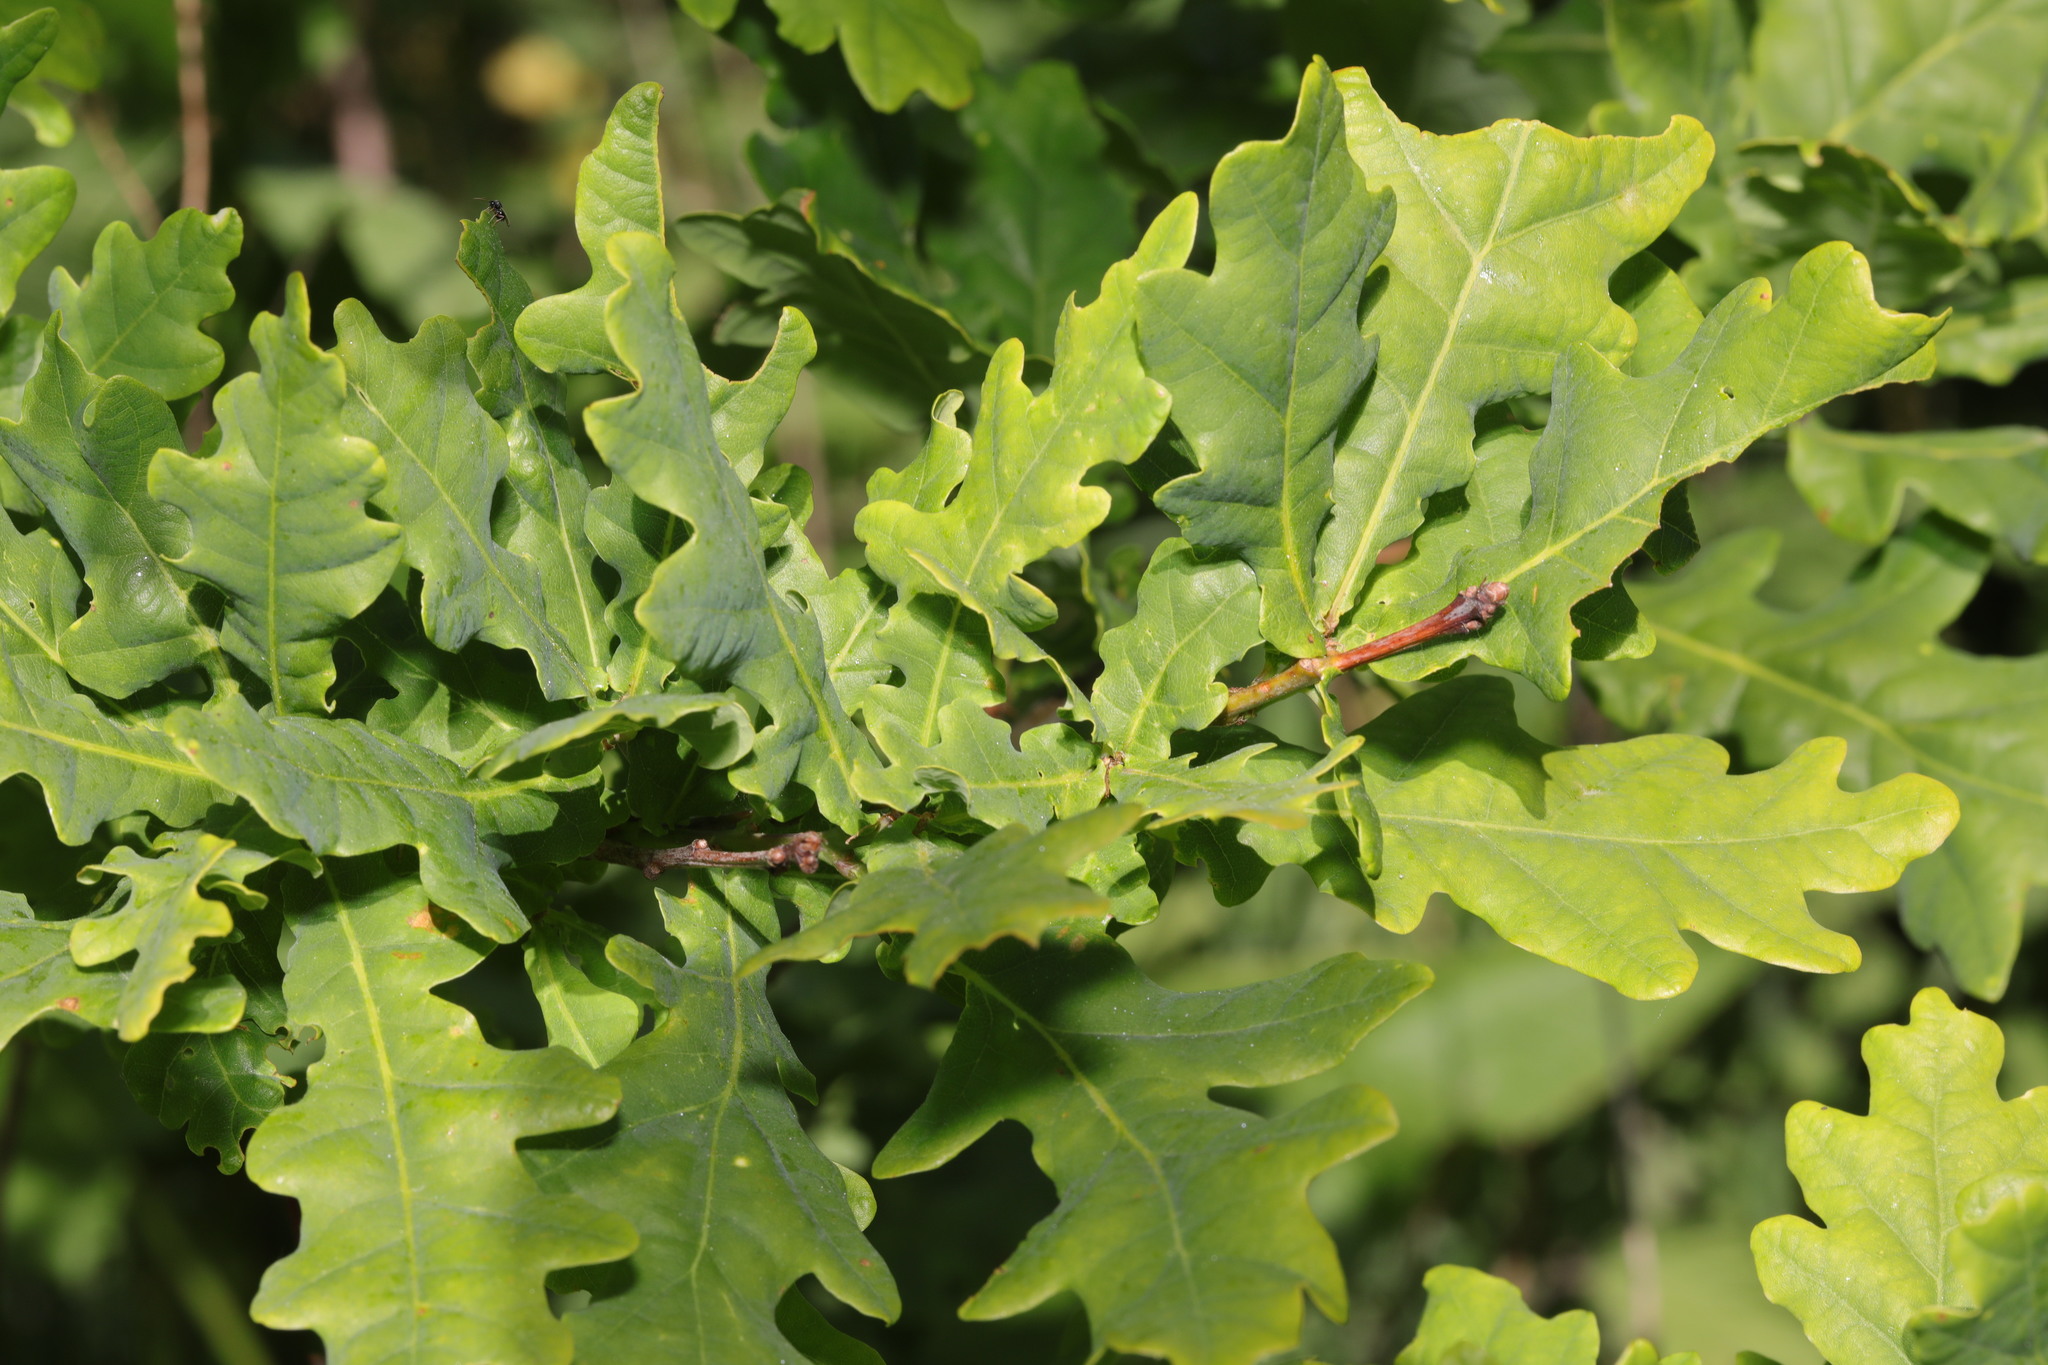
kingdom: Plantae
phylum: Tracheophyta
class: Magnoliopsida
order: Fagales
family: Fagaceae
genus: Quercus
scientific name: Quercus robur
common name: Pedunculate oak
